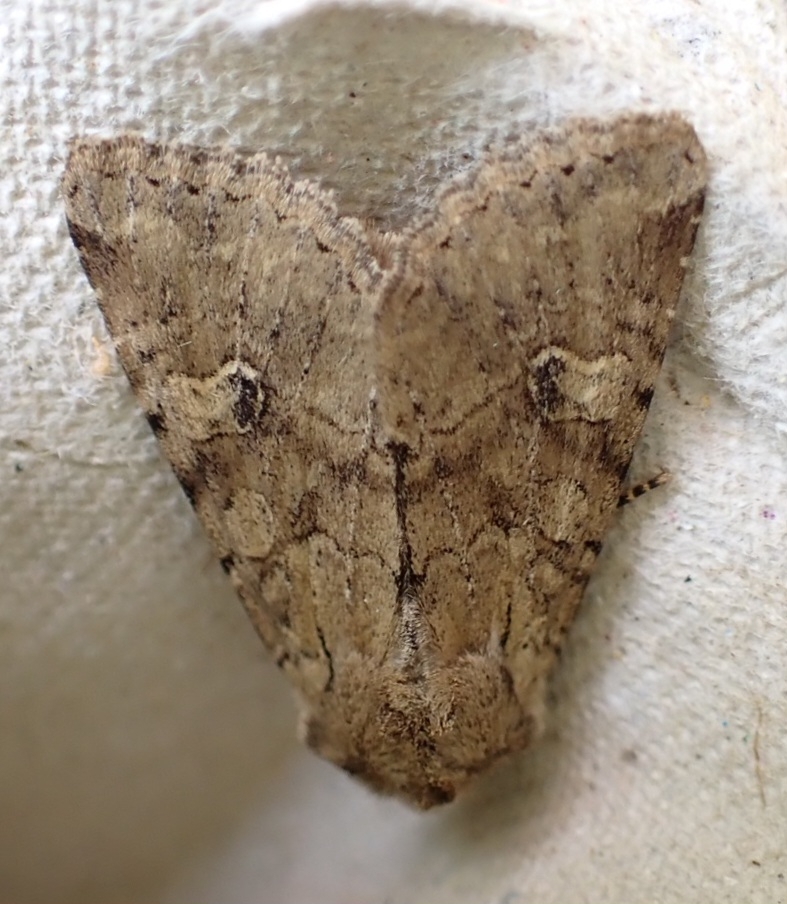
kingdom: Animalia
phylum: Arthropoda
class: Insecta
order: Lepidoptera
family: Noctuidae
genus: Apamea
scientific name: Apamea sordens
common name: Rustic shoulder-knot
